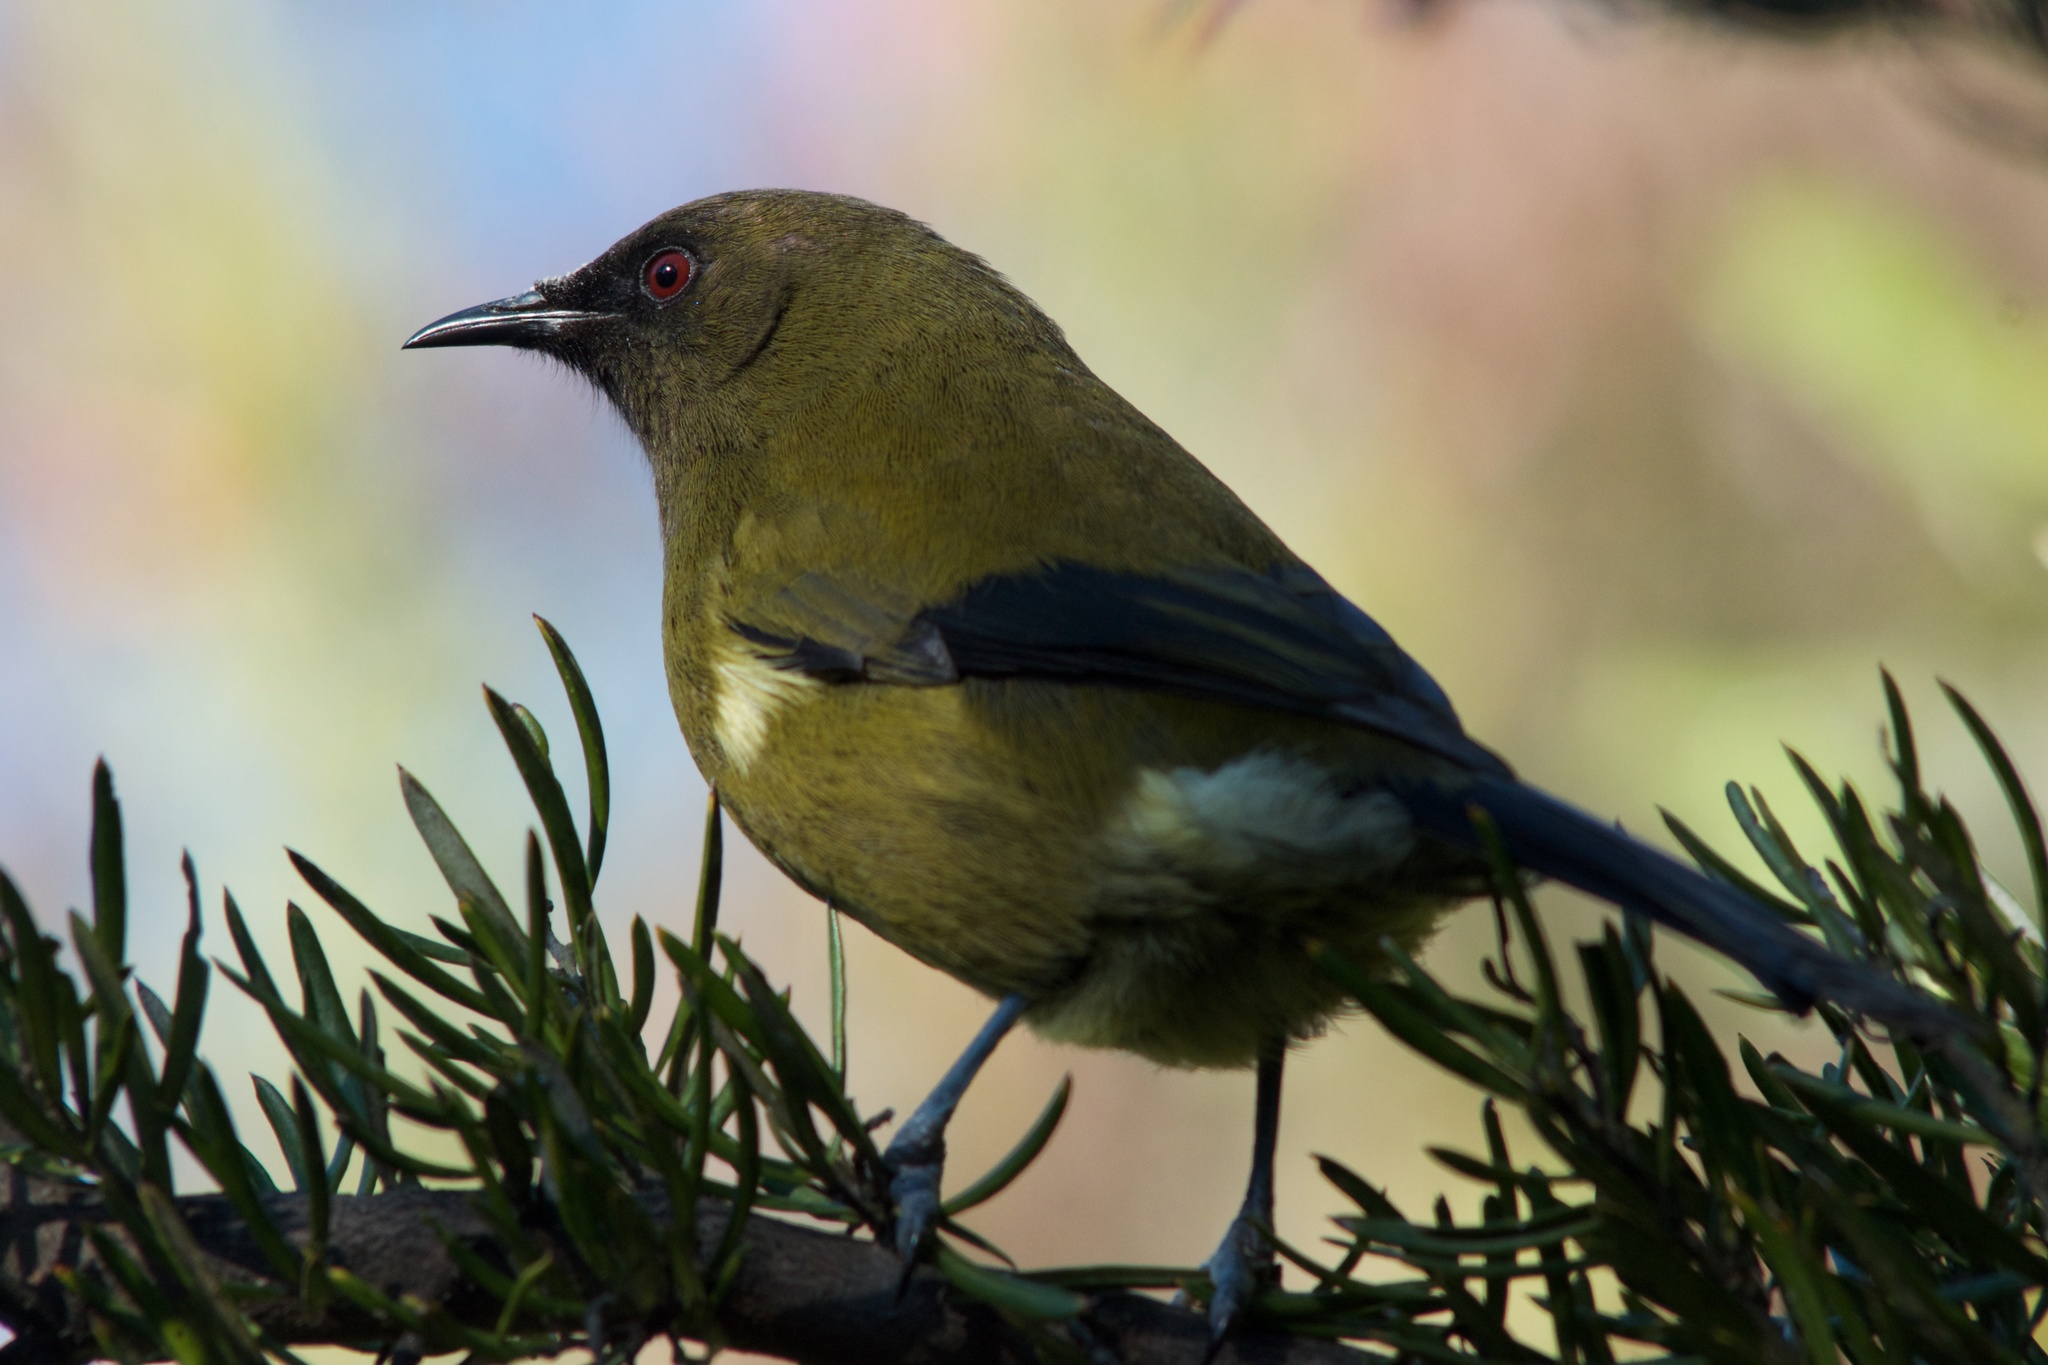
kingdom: Animalia
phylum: Chordata
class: Aves
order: Passeriformes
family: Meliphagidae
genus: Anthornis
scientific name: Anthornis melanura
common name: New zealand bellbird
